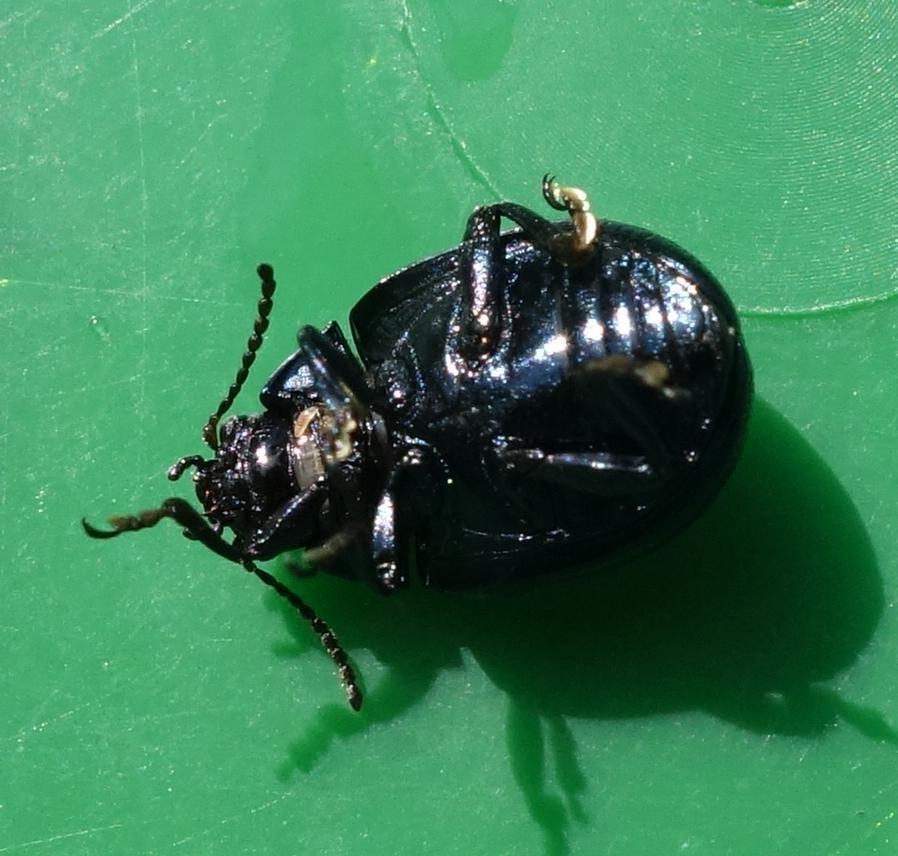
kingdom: Animalia
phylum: Arthropoda
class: Insecta
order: Coleoptera
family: Chrysomelidae
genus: Chrysolina
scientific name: Chrysolina haemoptera
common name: Plantain leaf beetle
